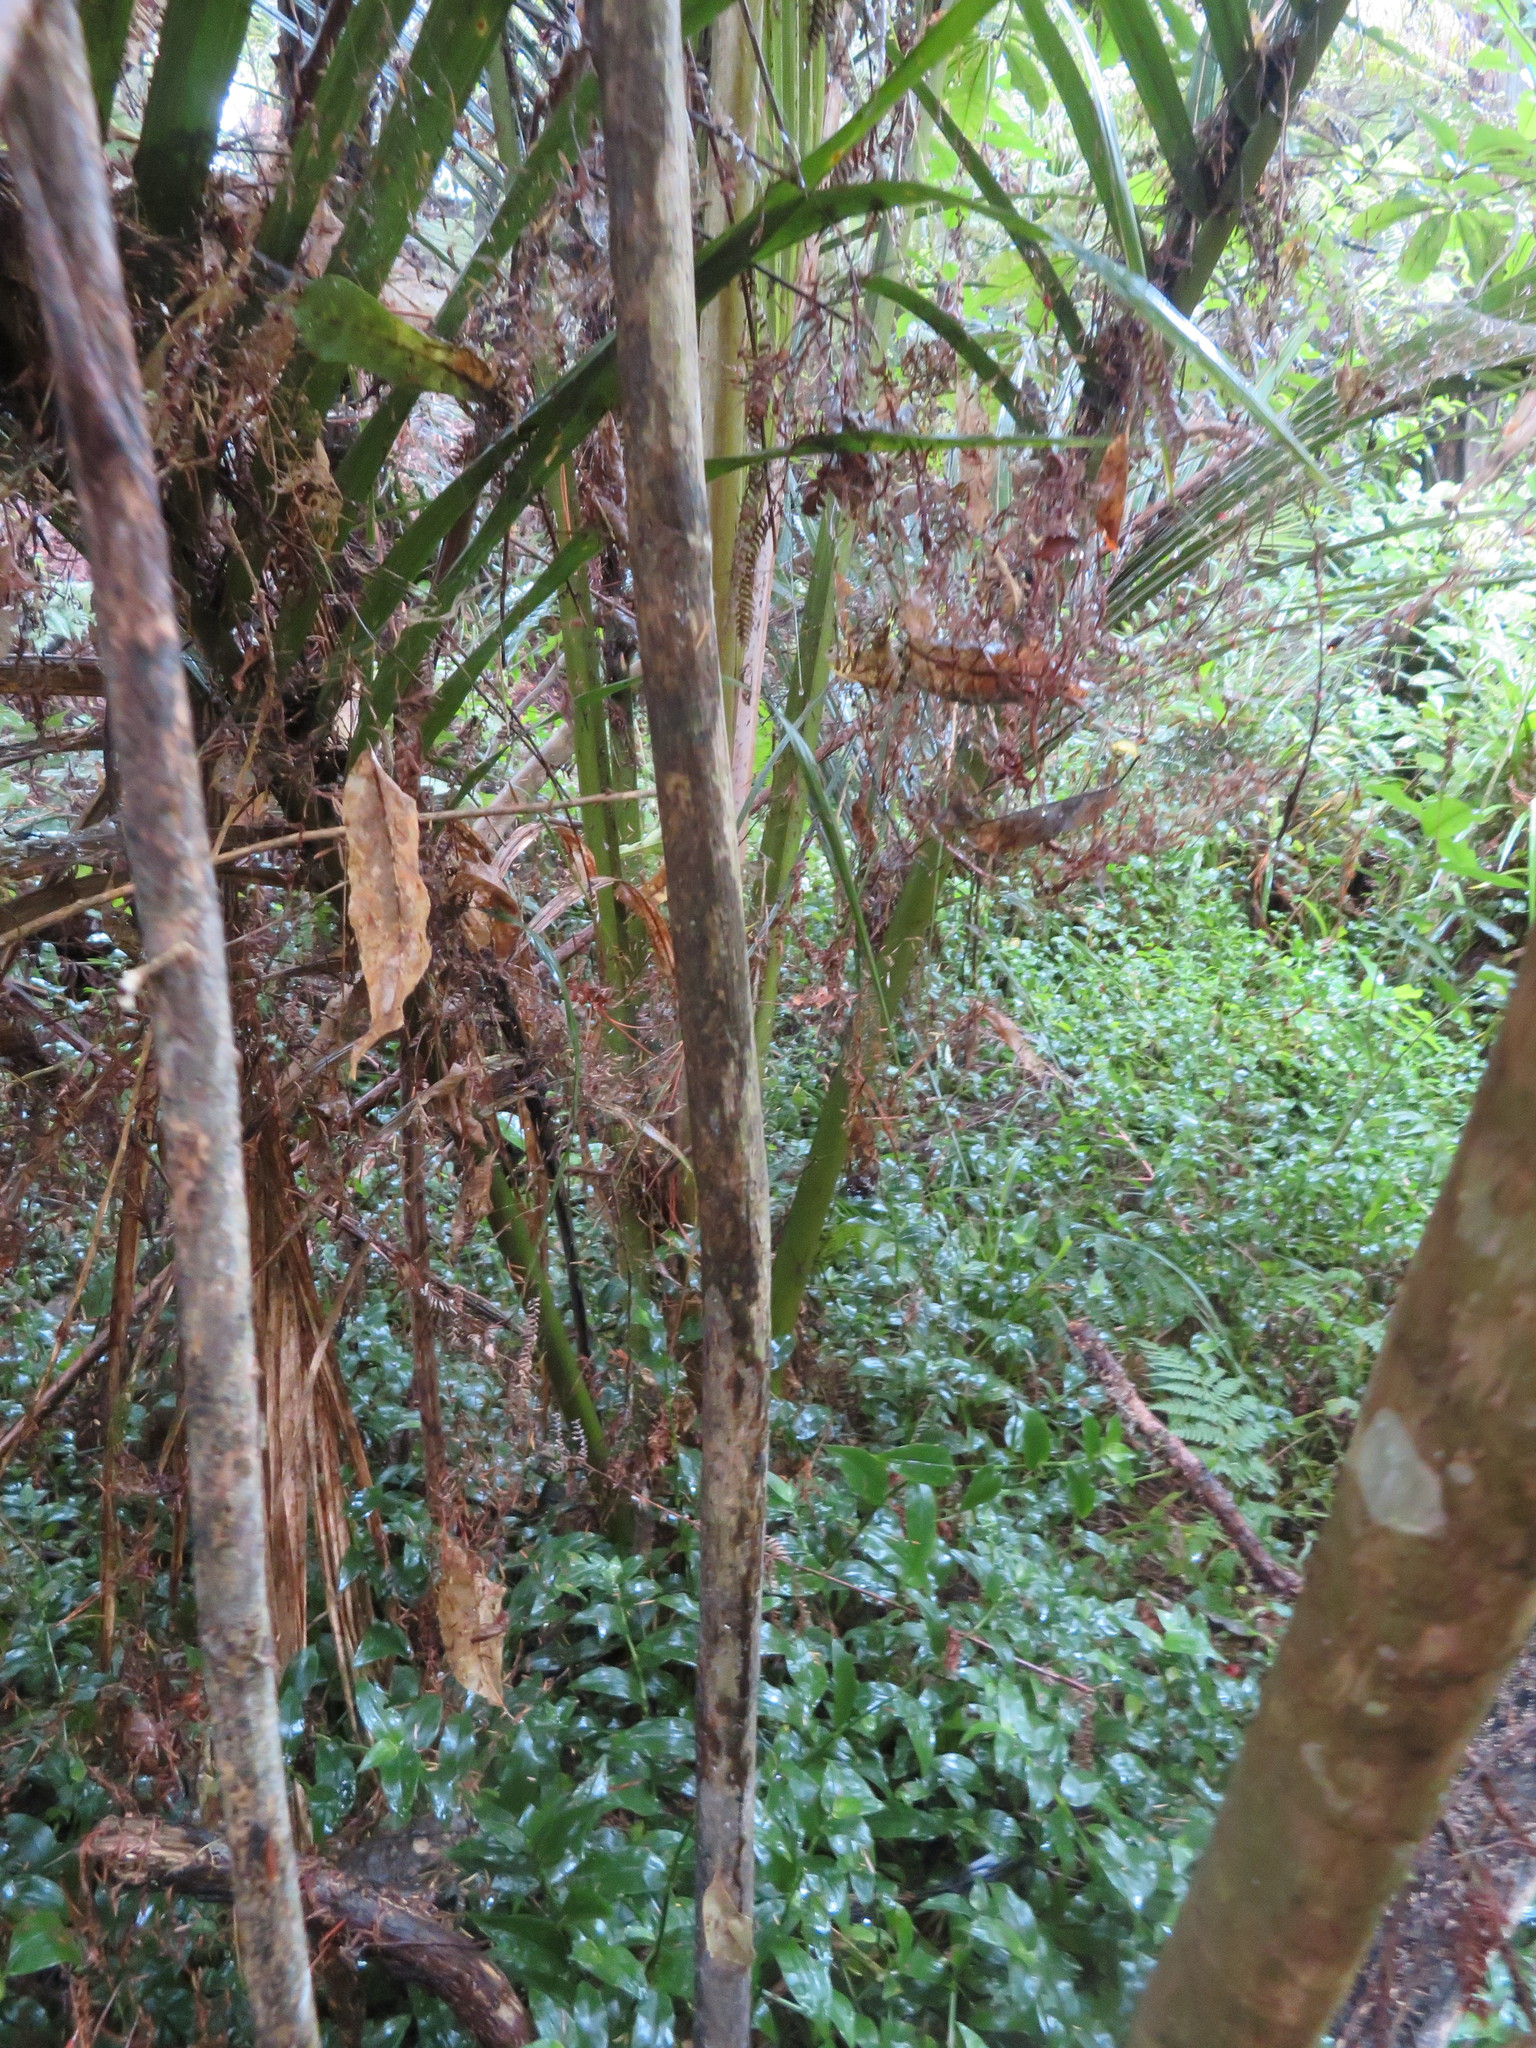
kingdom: Plantae
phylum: Tracheophyta
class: Magnoliopsida
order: Apiales
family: Araliaceae
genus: Schefflera
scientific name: Schefflera digitata
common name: Pate
